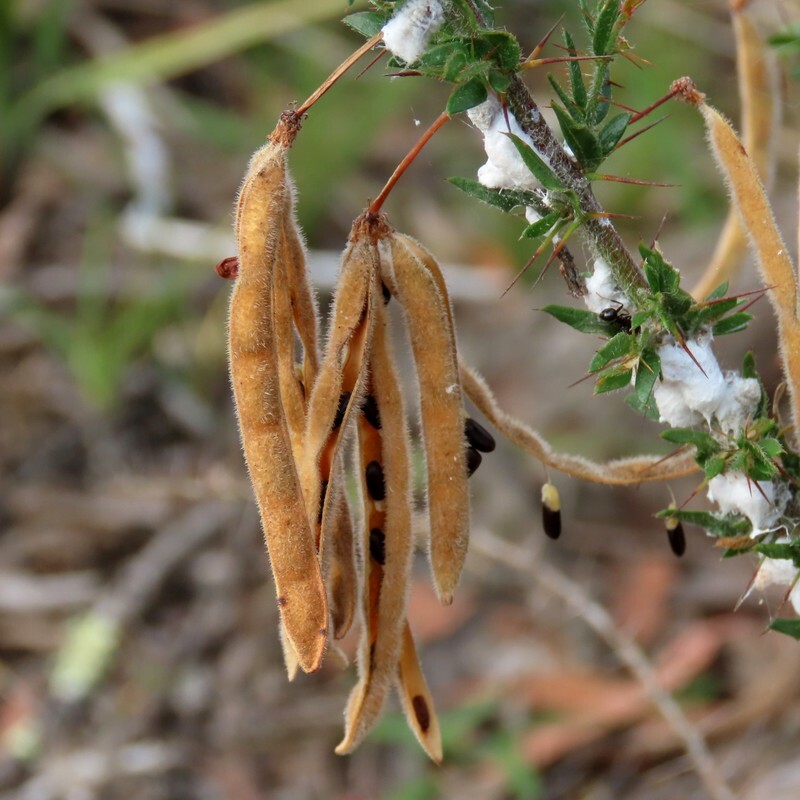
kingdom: Plantae
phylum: Tracheophyta
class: Magnoliopsida
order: Fabales
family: Fabaceae
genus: Acacia
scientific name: Acacia paradoxa
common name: Paradox acacia
